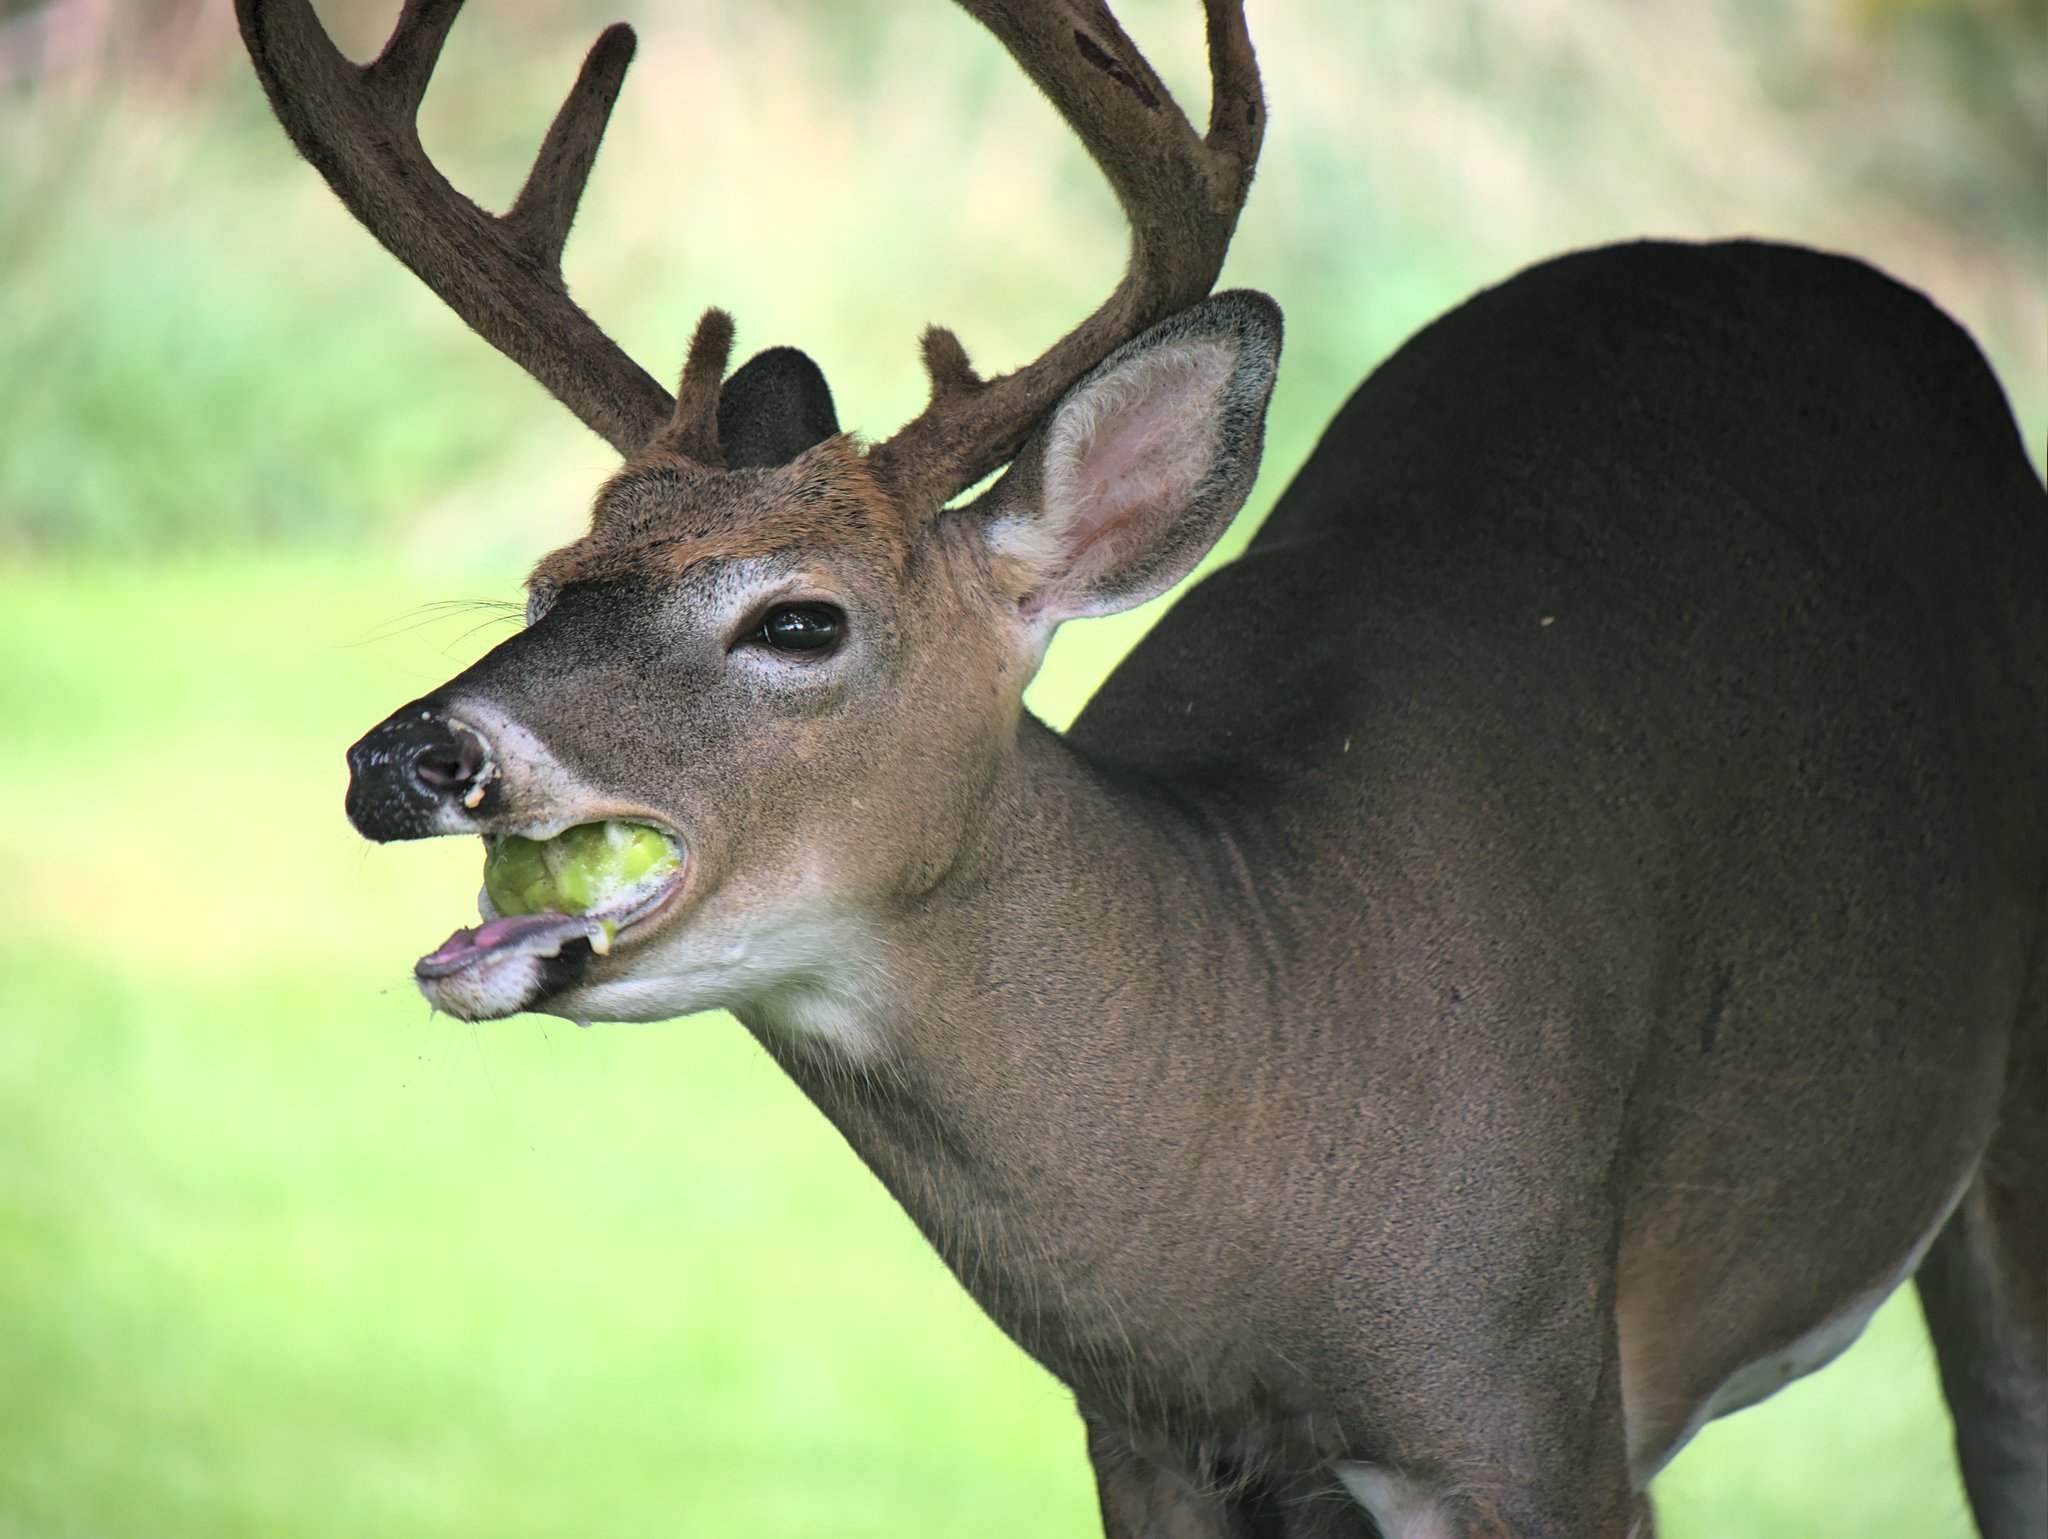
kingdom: Animalia
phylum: Chordata
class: Mammalia
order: Artiodactyla
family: Cervidae
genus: Odocoileus
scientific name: Odocoileus virginianus
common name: White-tailed deer
